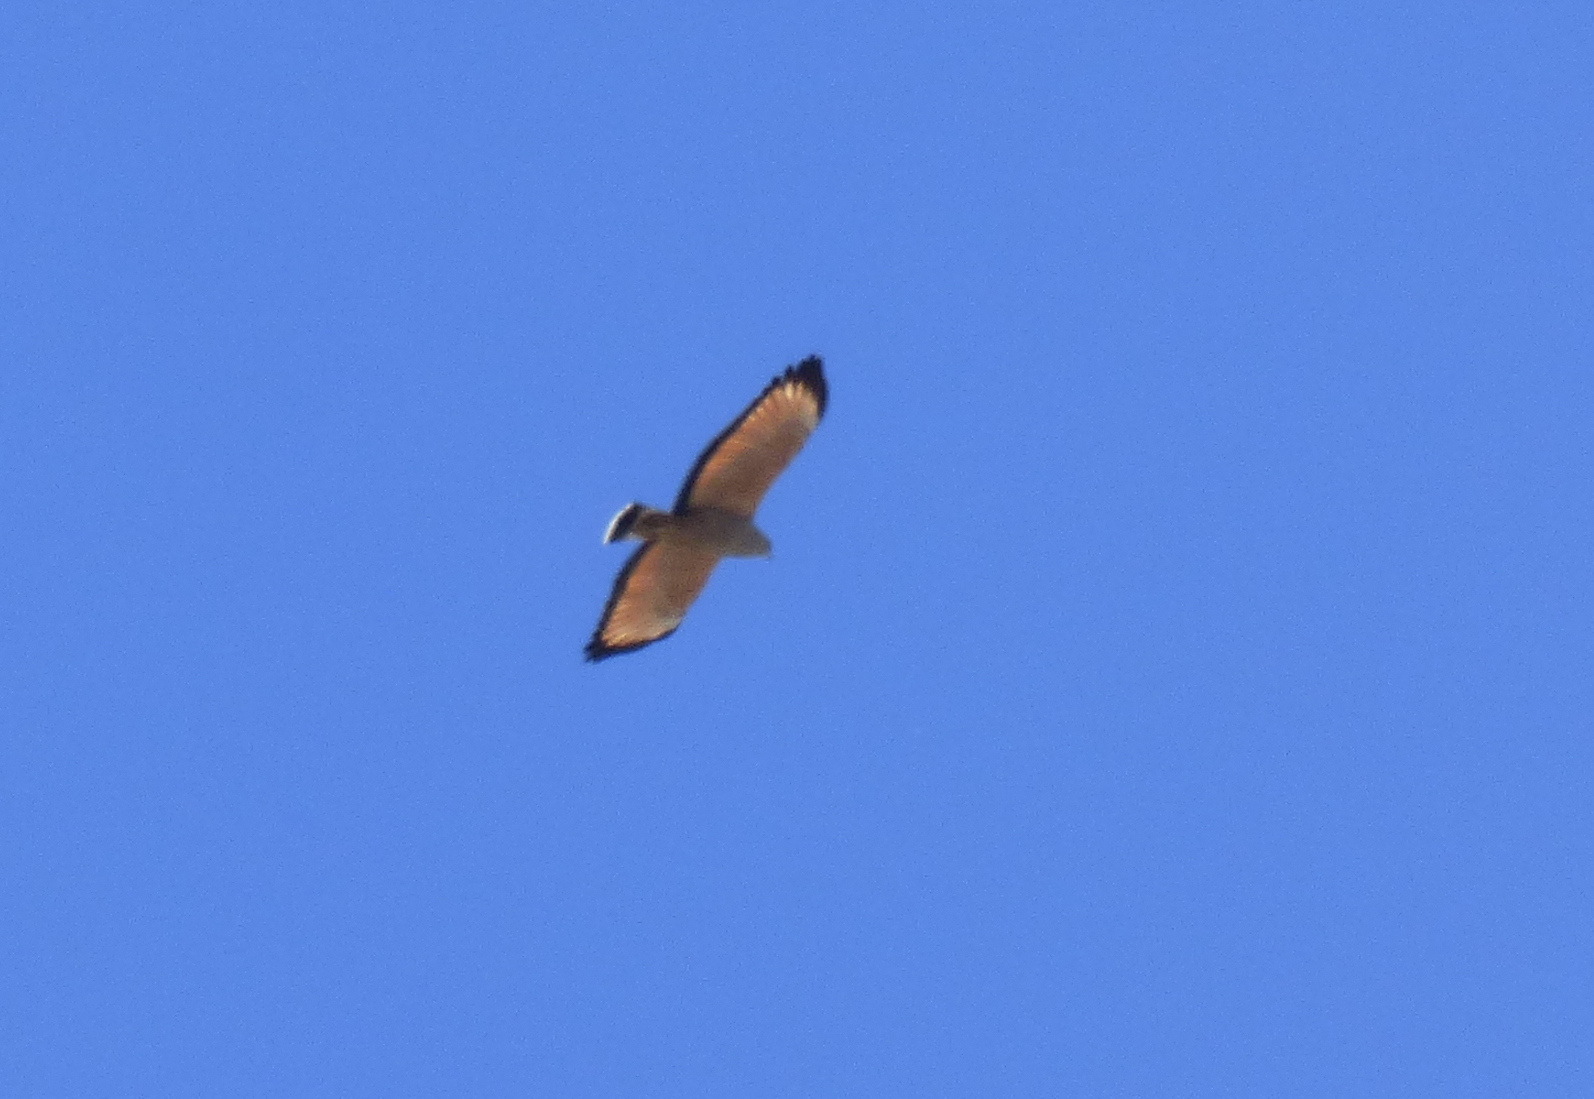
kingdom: Animalia
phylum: Chordata
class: Aves
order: Accipitriformes
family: Accipitridae
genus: Buteogallus
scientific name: Buteogallus meridionalis
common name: Savanna hawk
